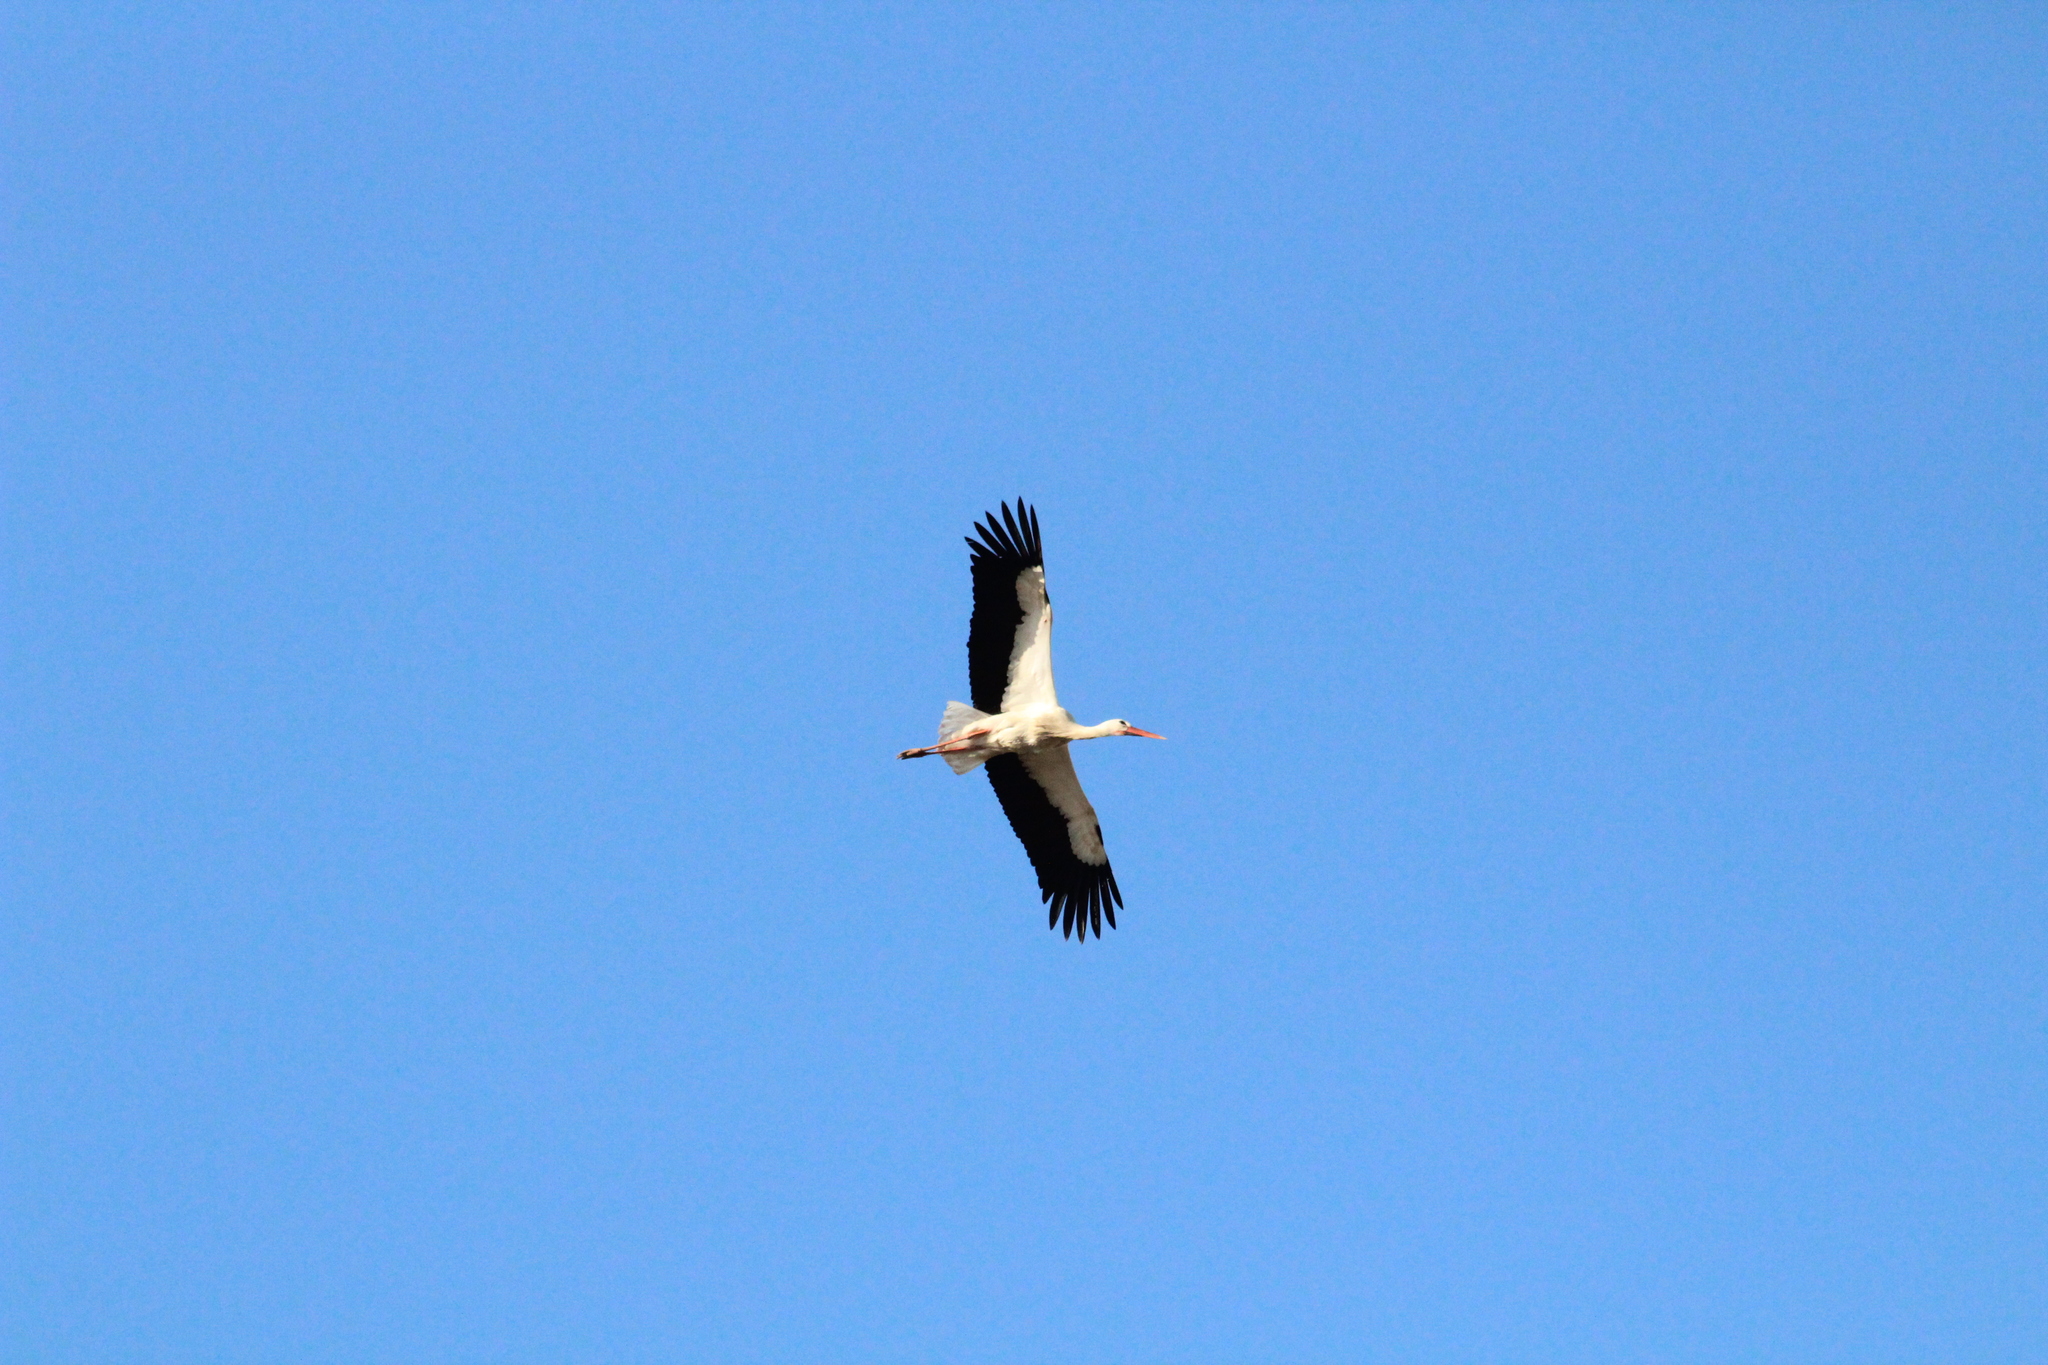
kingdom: Animalia
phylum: Chordata
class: Aves
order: Ciconiiformes
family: Ciconiidae
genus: Ciconia
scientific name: Ciconia ciconia
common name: White stork
